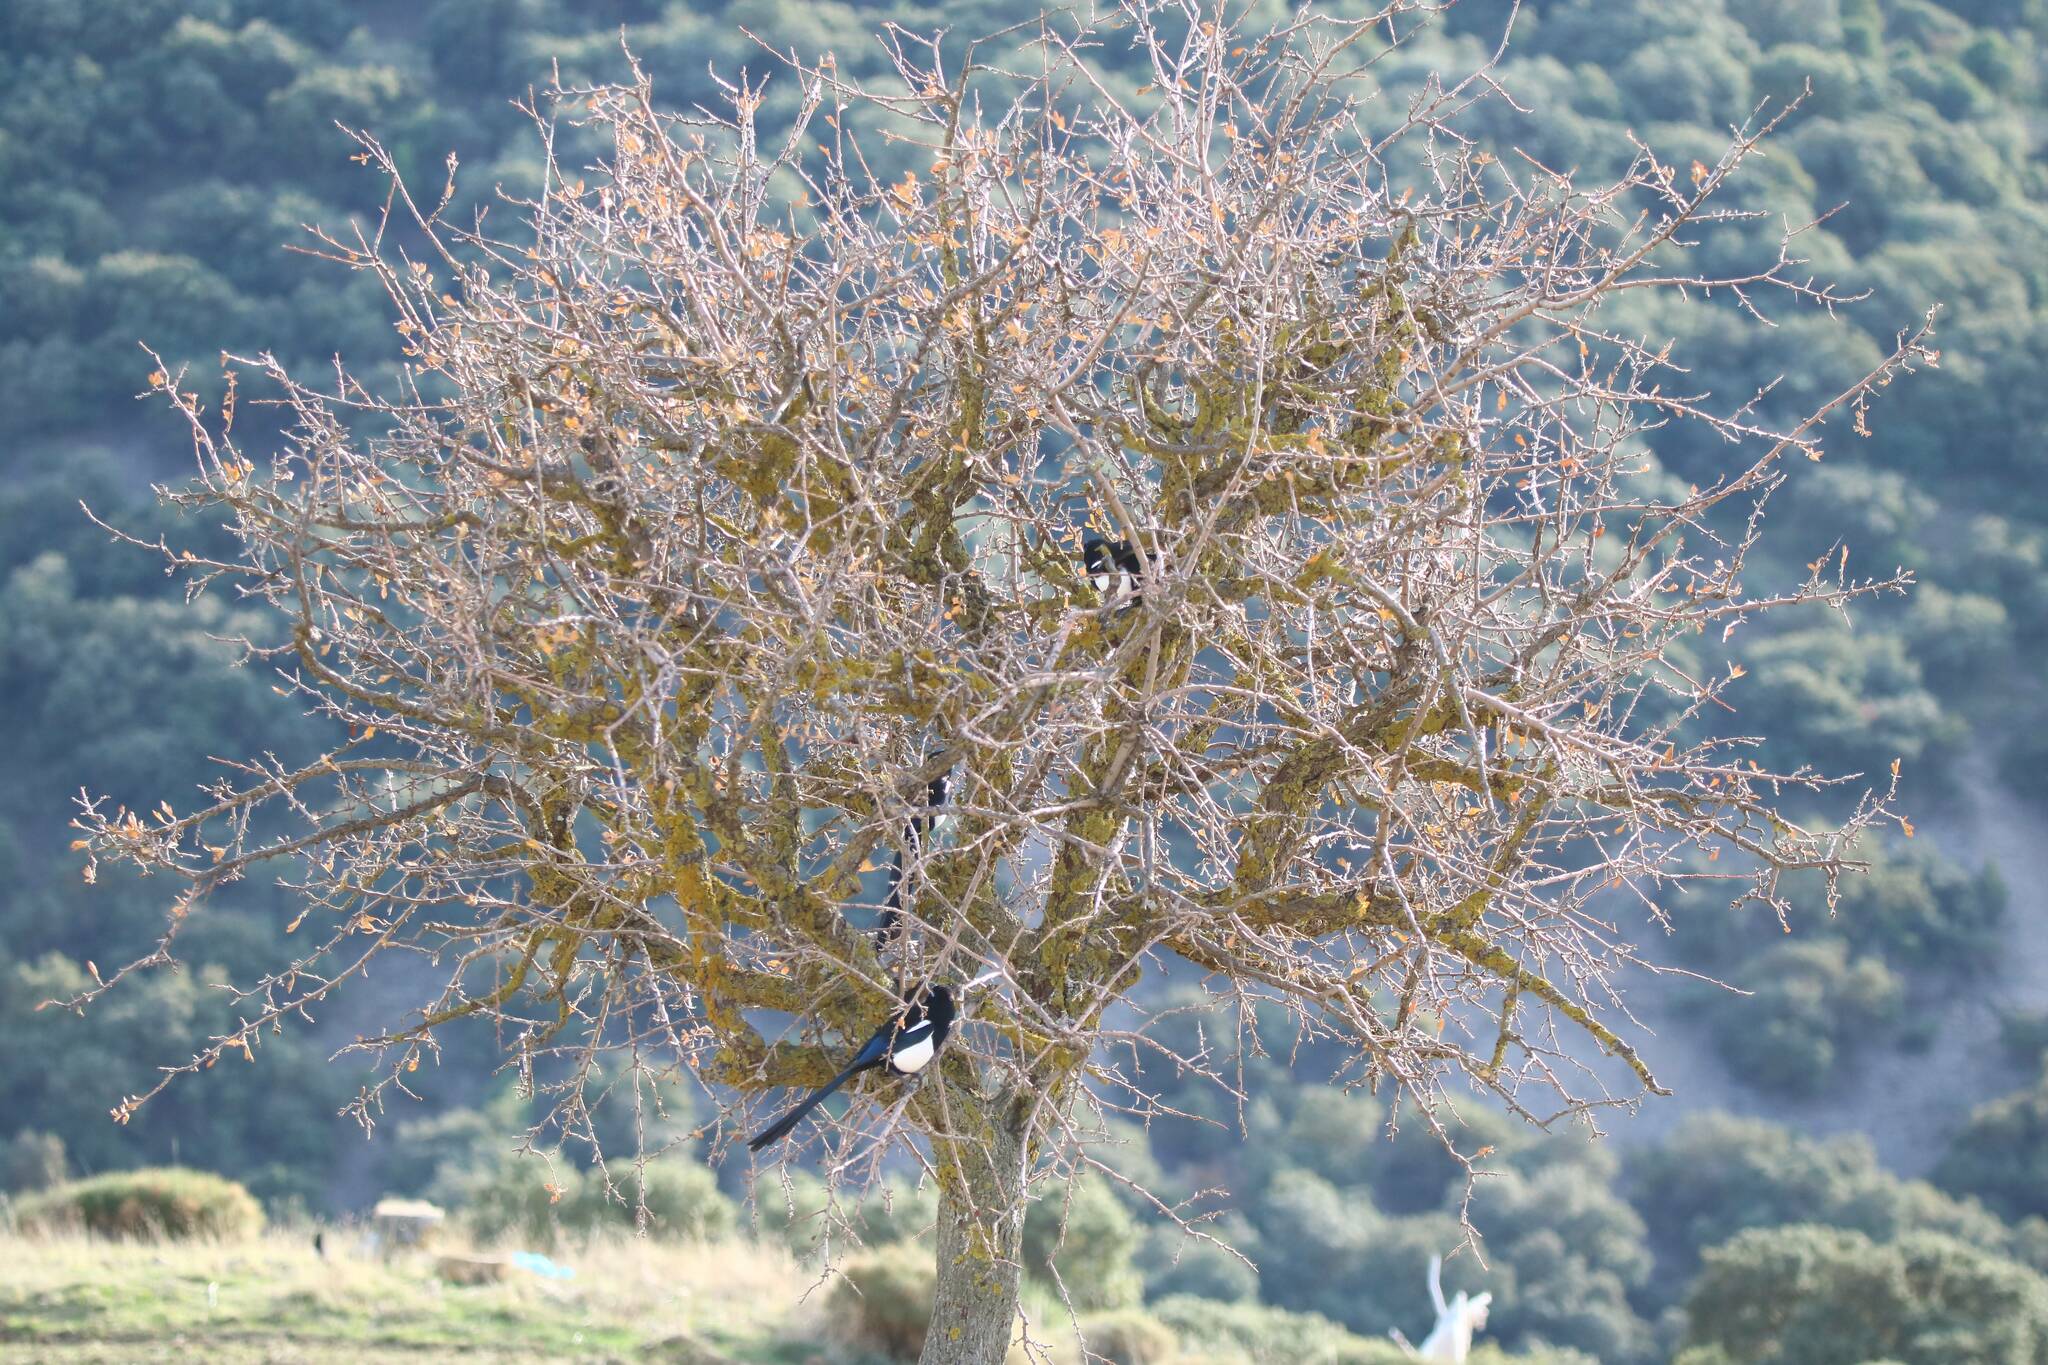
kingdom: Animalia
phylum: Chordata
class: Aves
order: Passeriformes
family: Corvidae
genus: Pica
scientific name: Pica mauritanica
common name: Maghreb magpie
